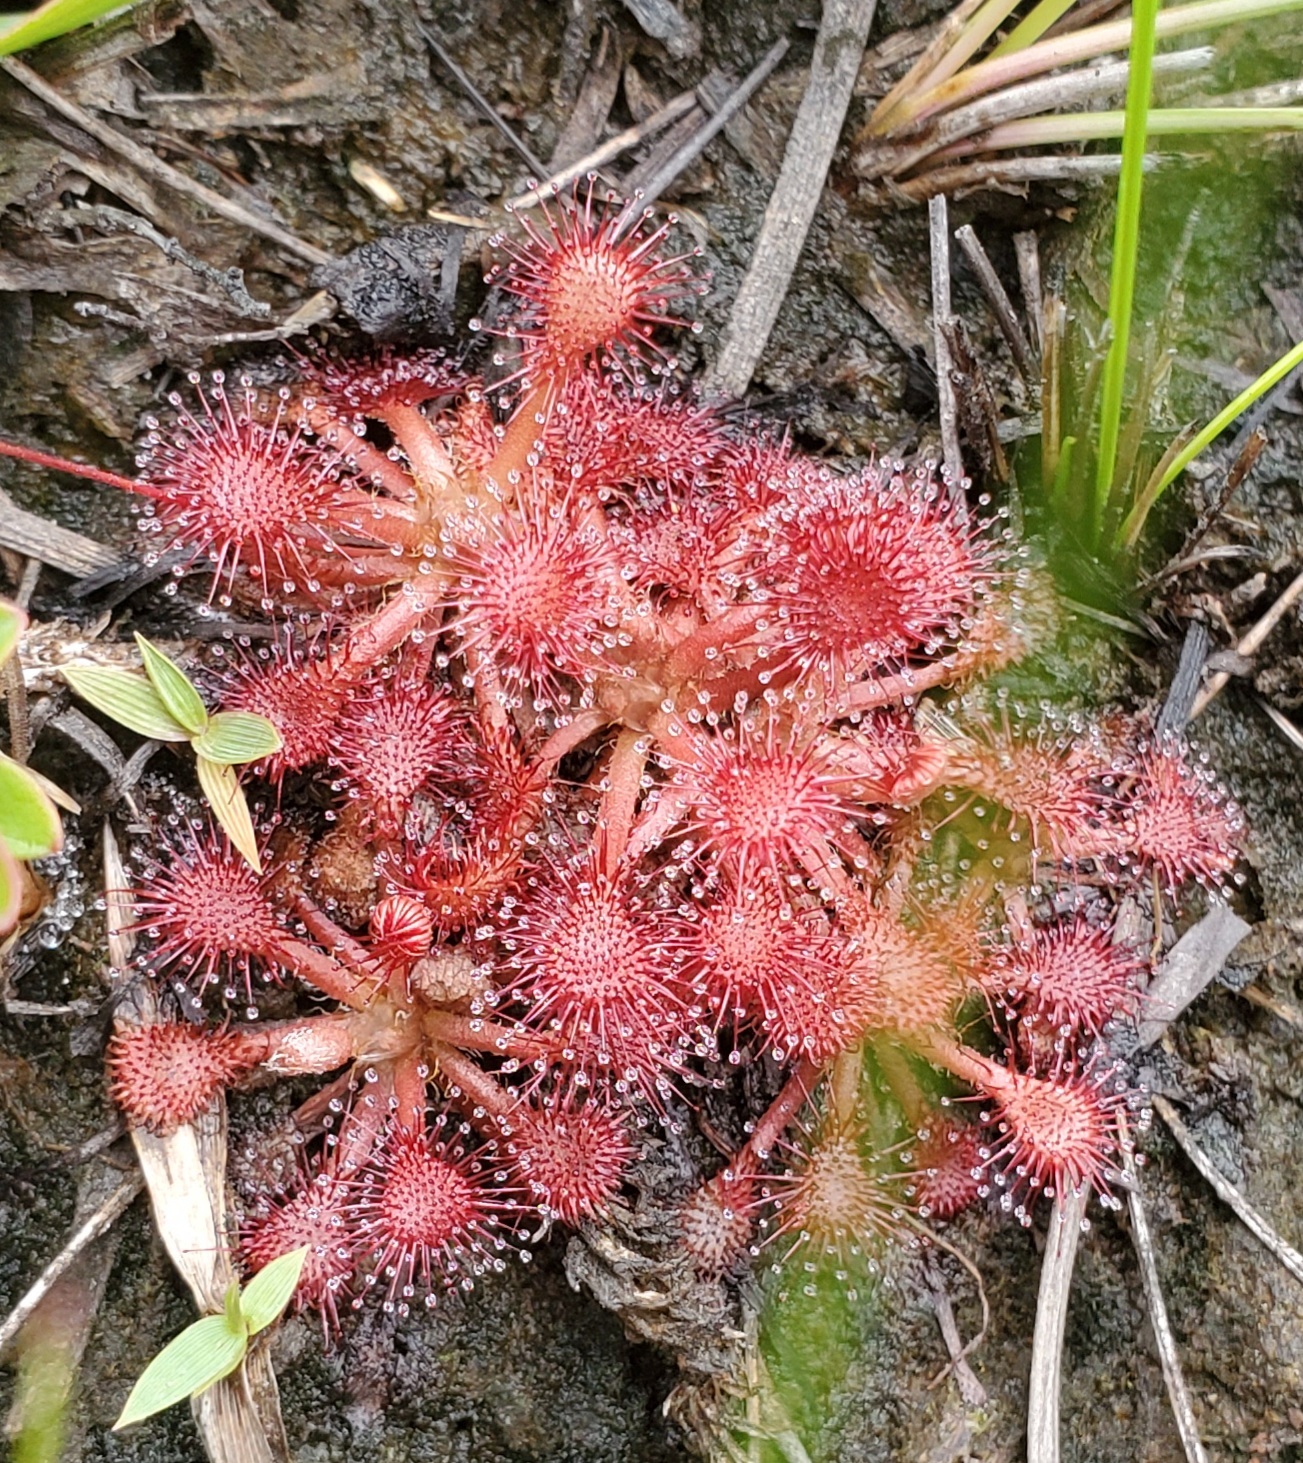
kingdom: Plantae
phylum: Tracheophyta
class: Magnoliopsida
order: Caryophyllales
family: Droseraceae
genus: Drosera
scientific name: Drosera capillaris
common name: Pink sundew
